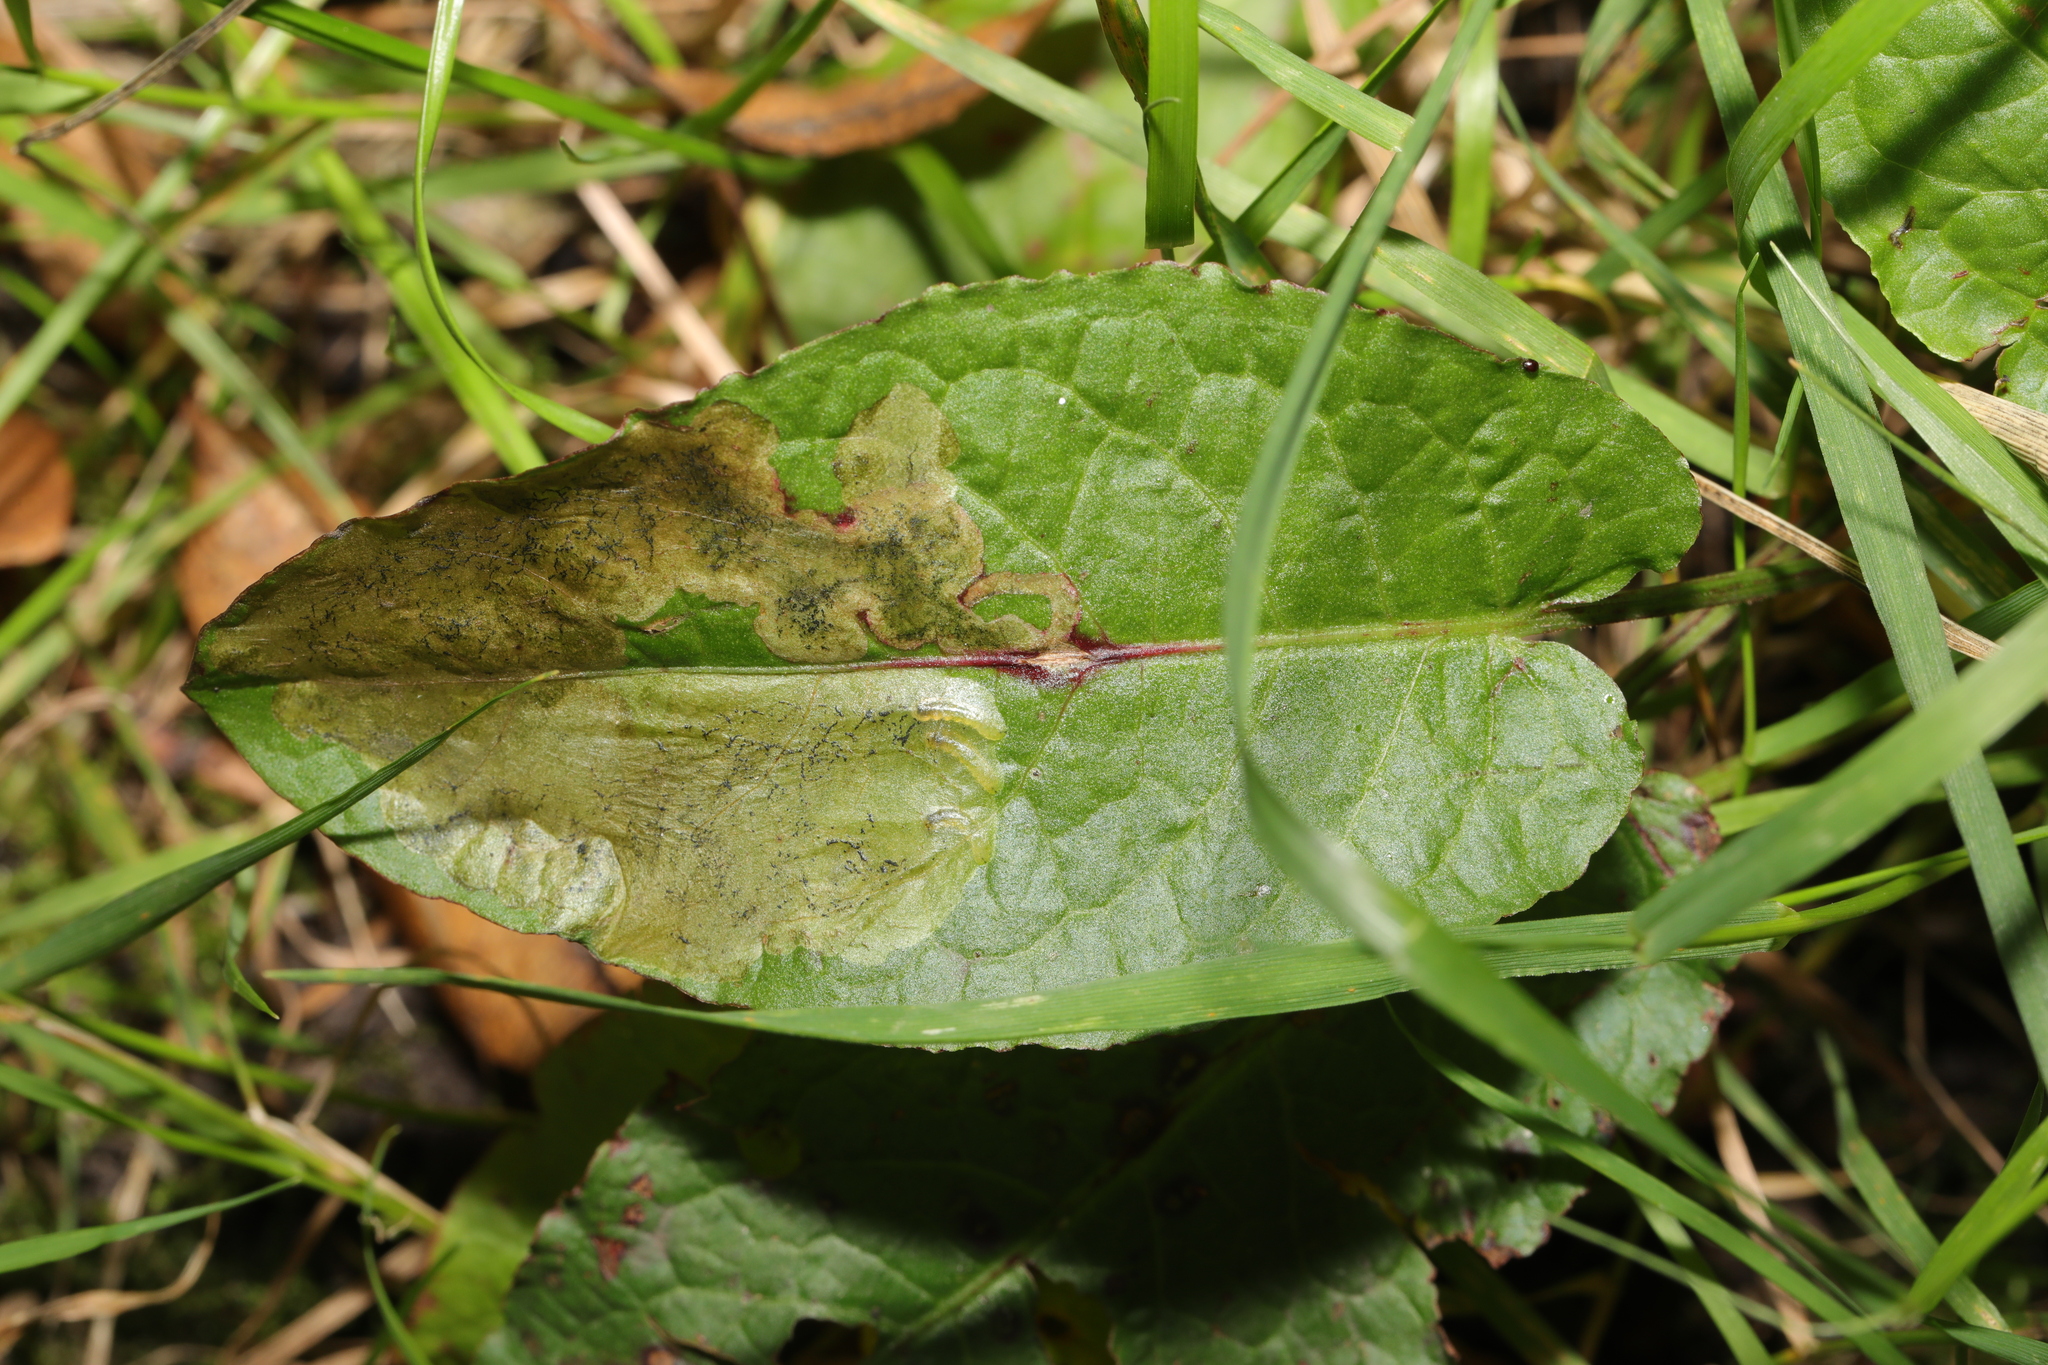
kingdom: Plantae
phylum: Tracheophyta
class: Magnoliopsida
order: Caryophyllales
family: Polygonaceae
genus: Rumex
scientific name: Rumex obtusifolius
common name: Bitter dock
